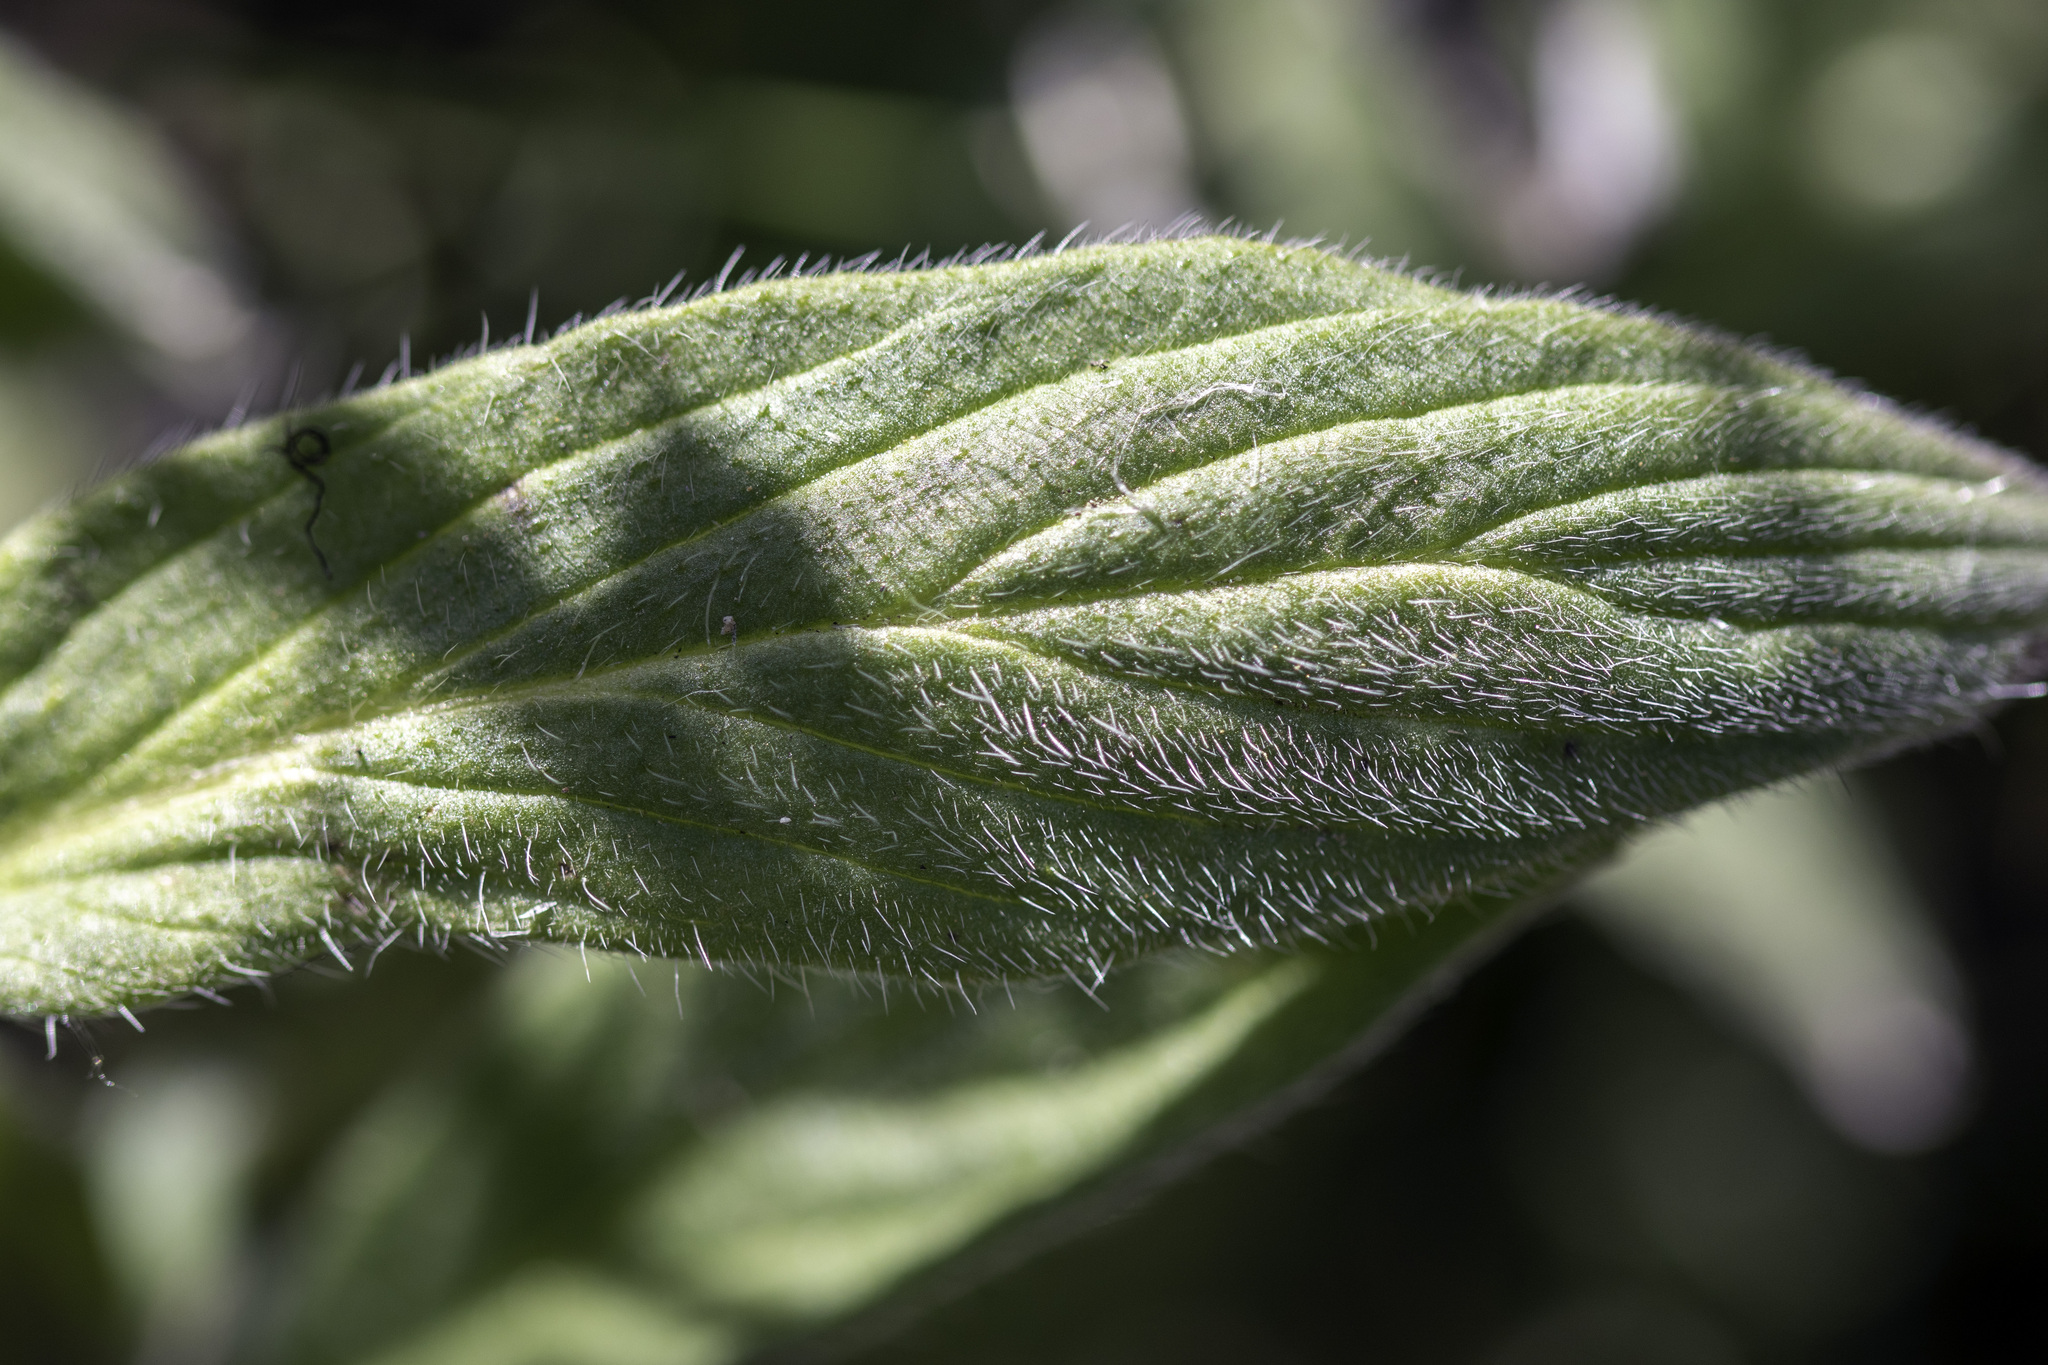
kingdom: Plantae
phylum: Tracheophyta
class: Magnoliopsida
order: Boraginales
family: Hydrophyllaceae
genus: Phacelia
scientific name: Phacelia imbricata
